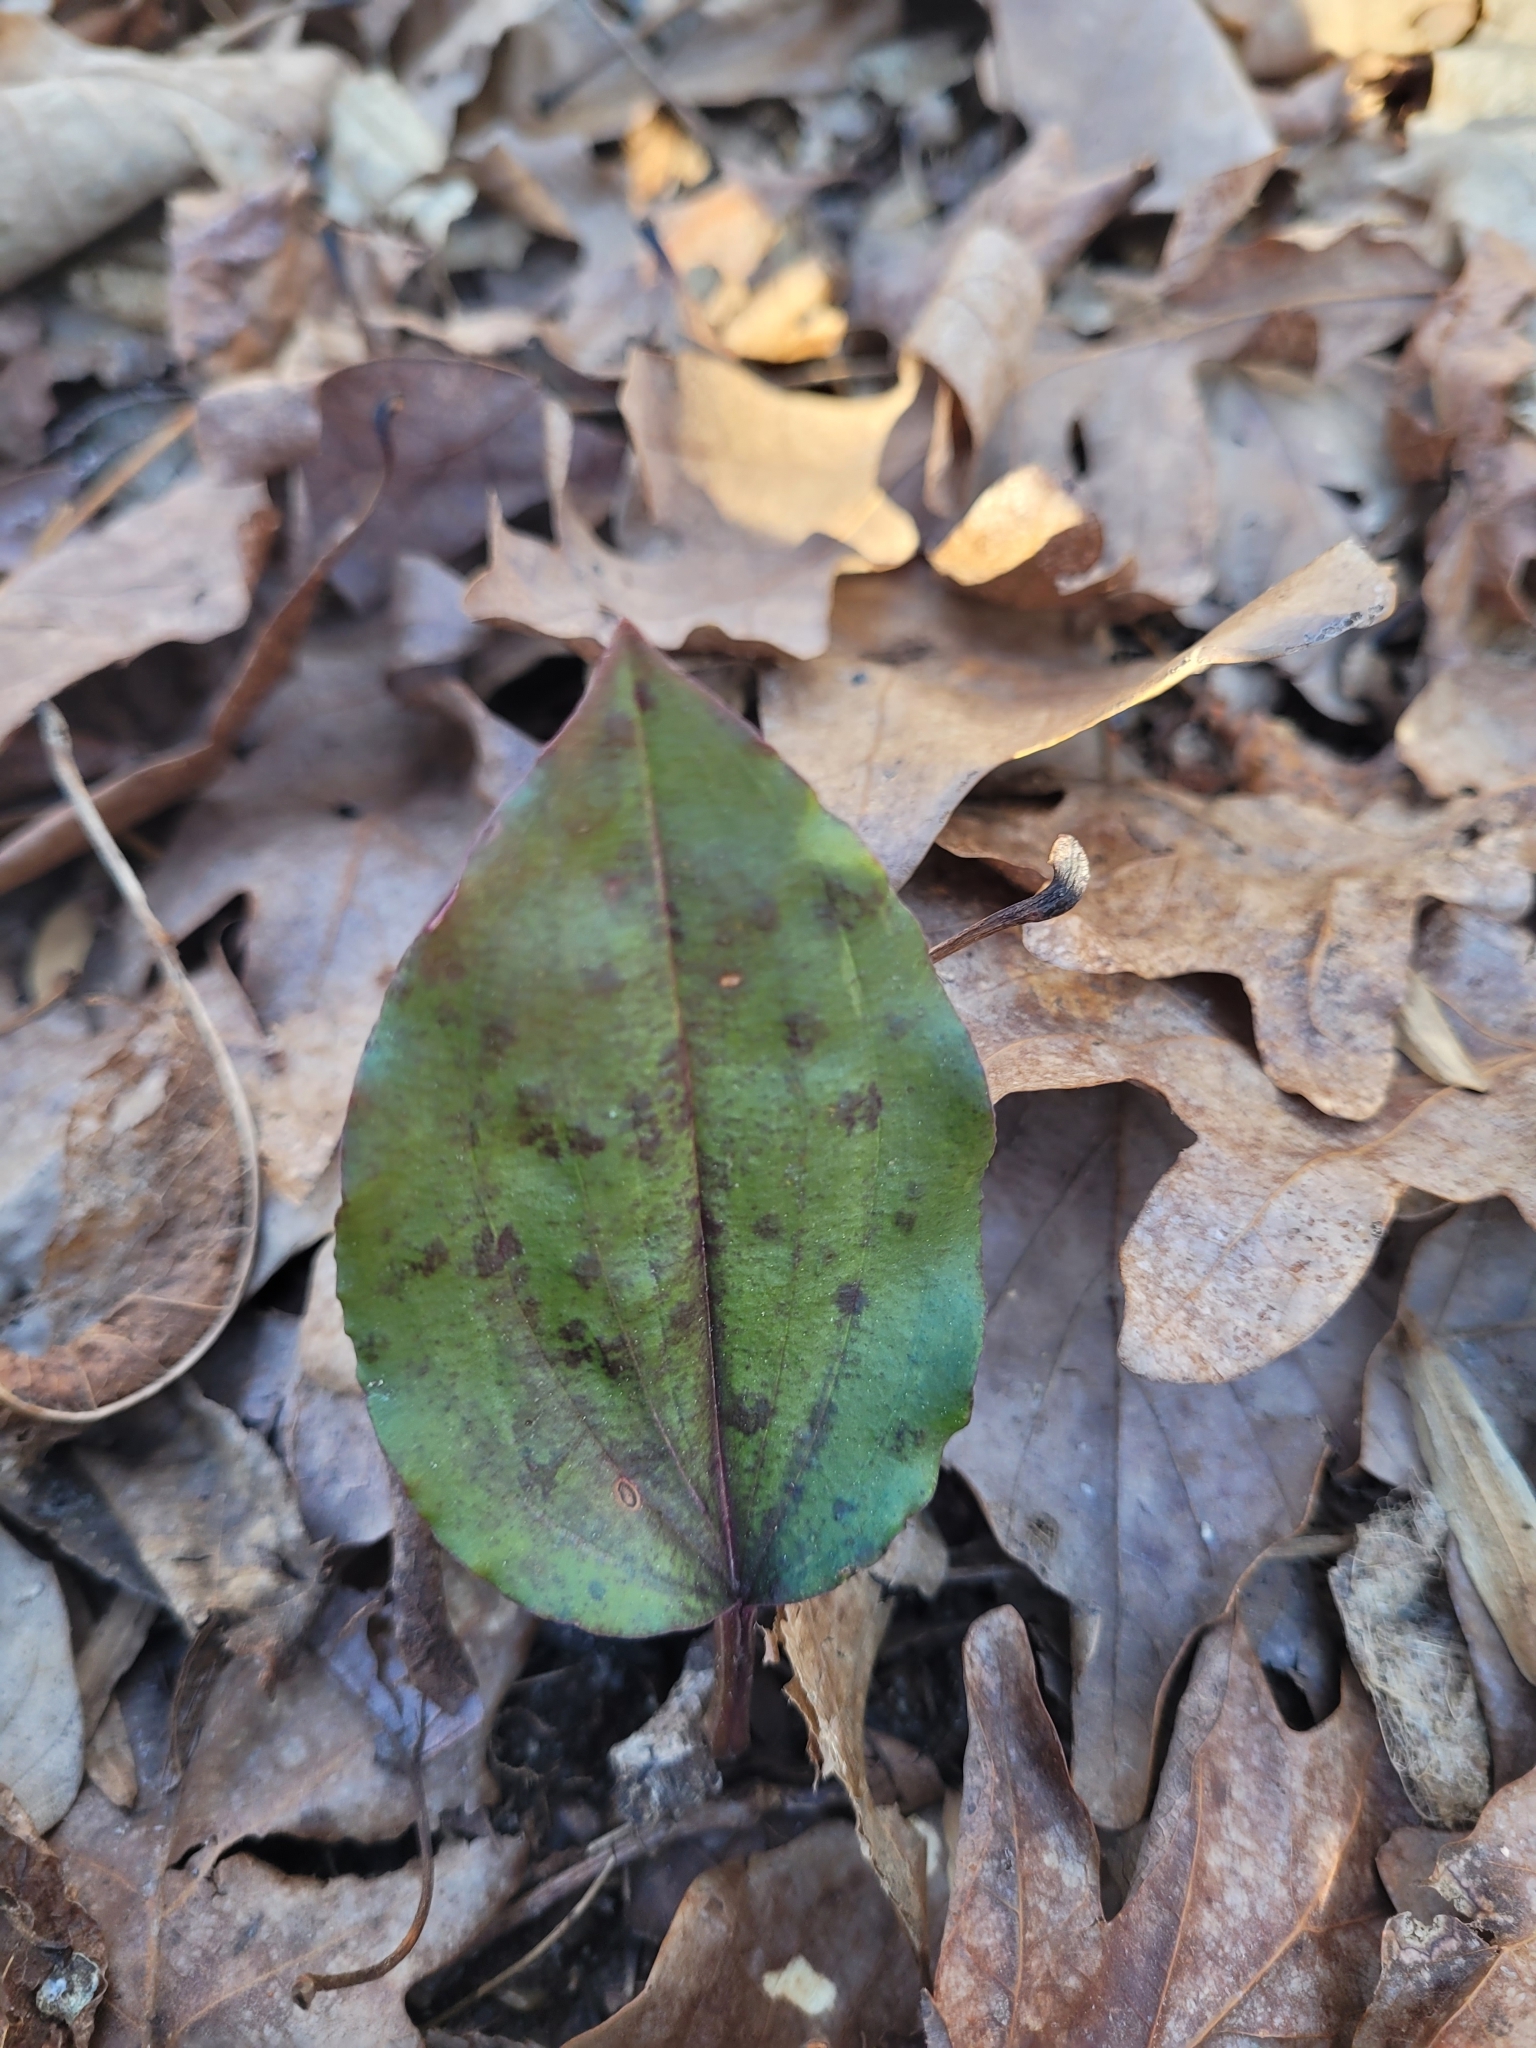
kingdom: Plantae
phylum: Tracheophyta
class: Liliopsida
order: Asparagales
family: Orchidaceae
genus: Tipularia
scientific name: Tipularia discolor
